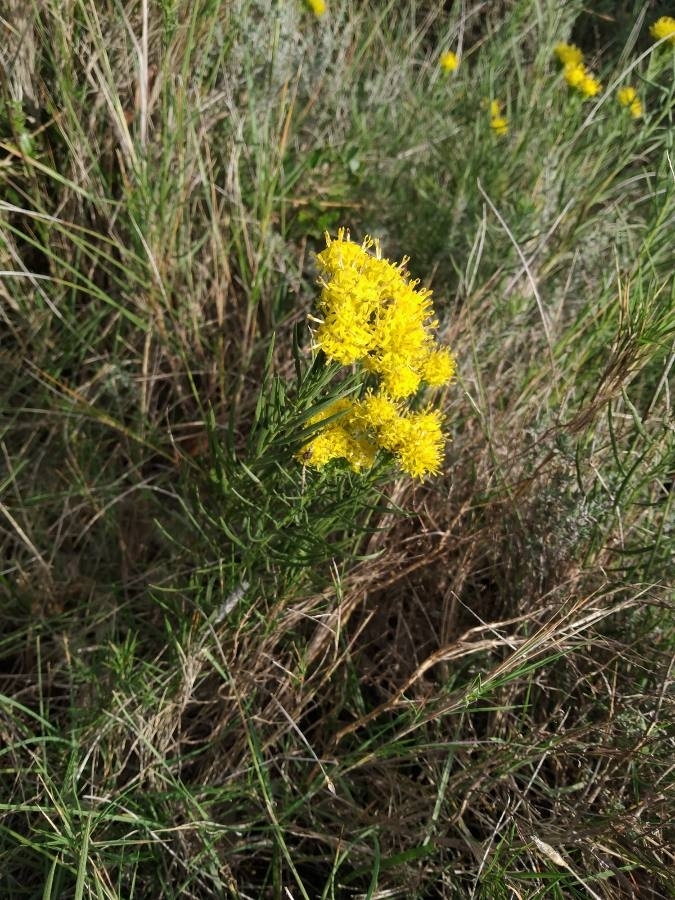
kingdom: Plantae
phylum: Tracheophyta
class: Magnoliopsida
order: Asterales
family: Asteraceae
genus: Galatella
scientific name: Galatella linosyris
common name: Goldilocks aster
